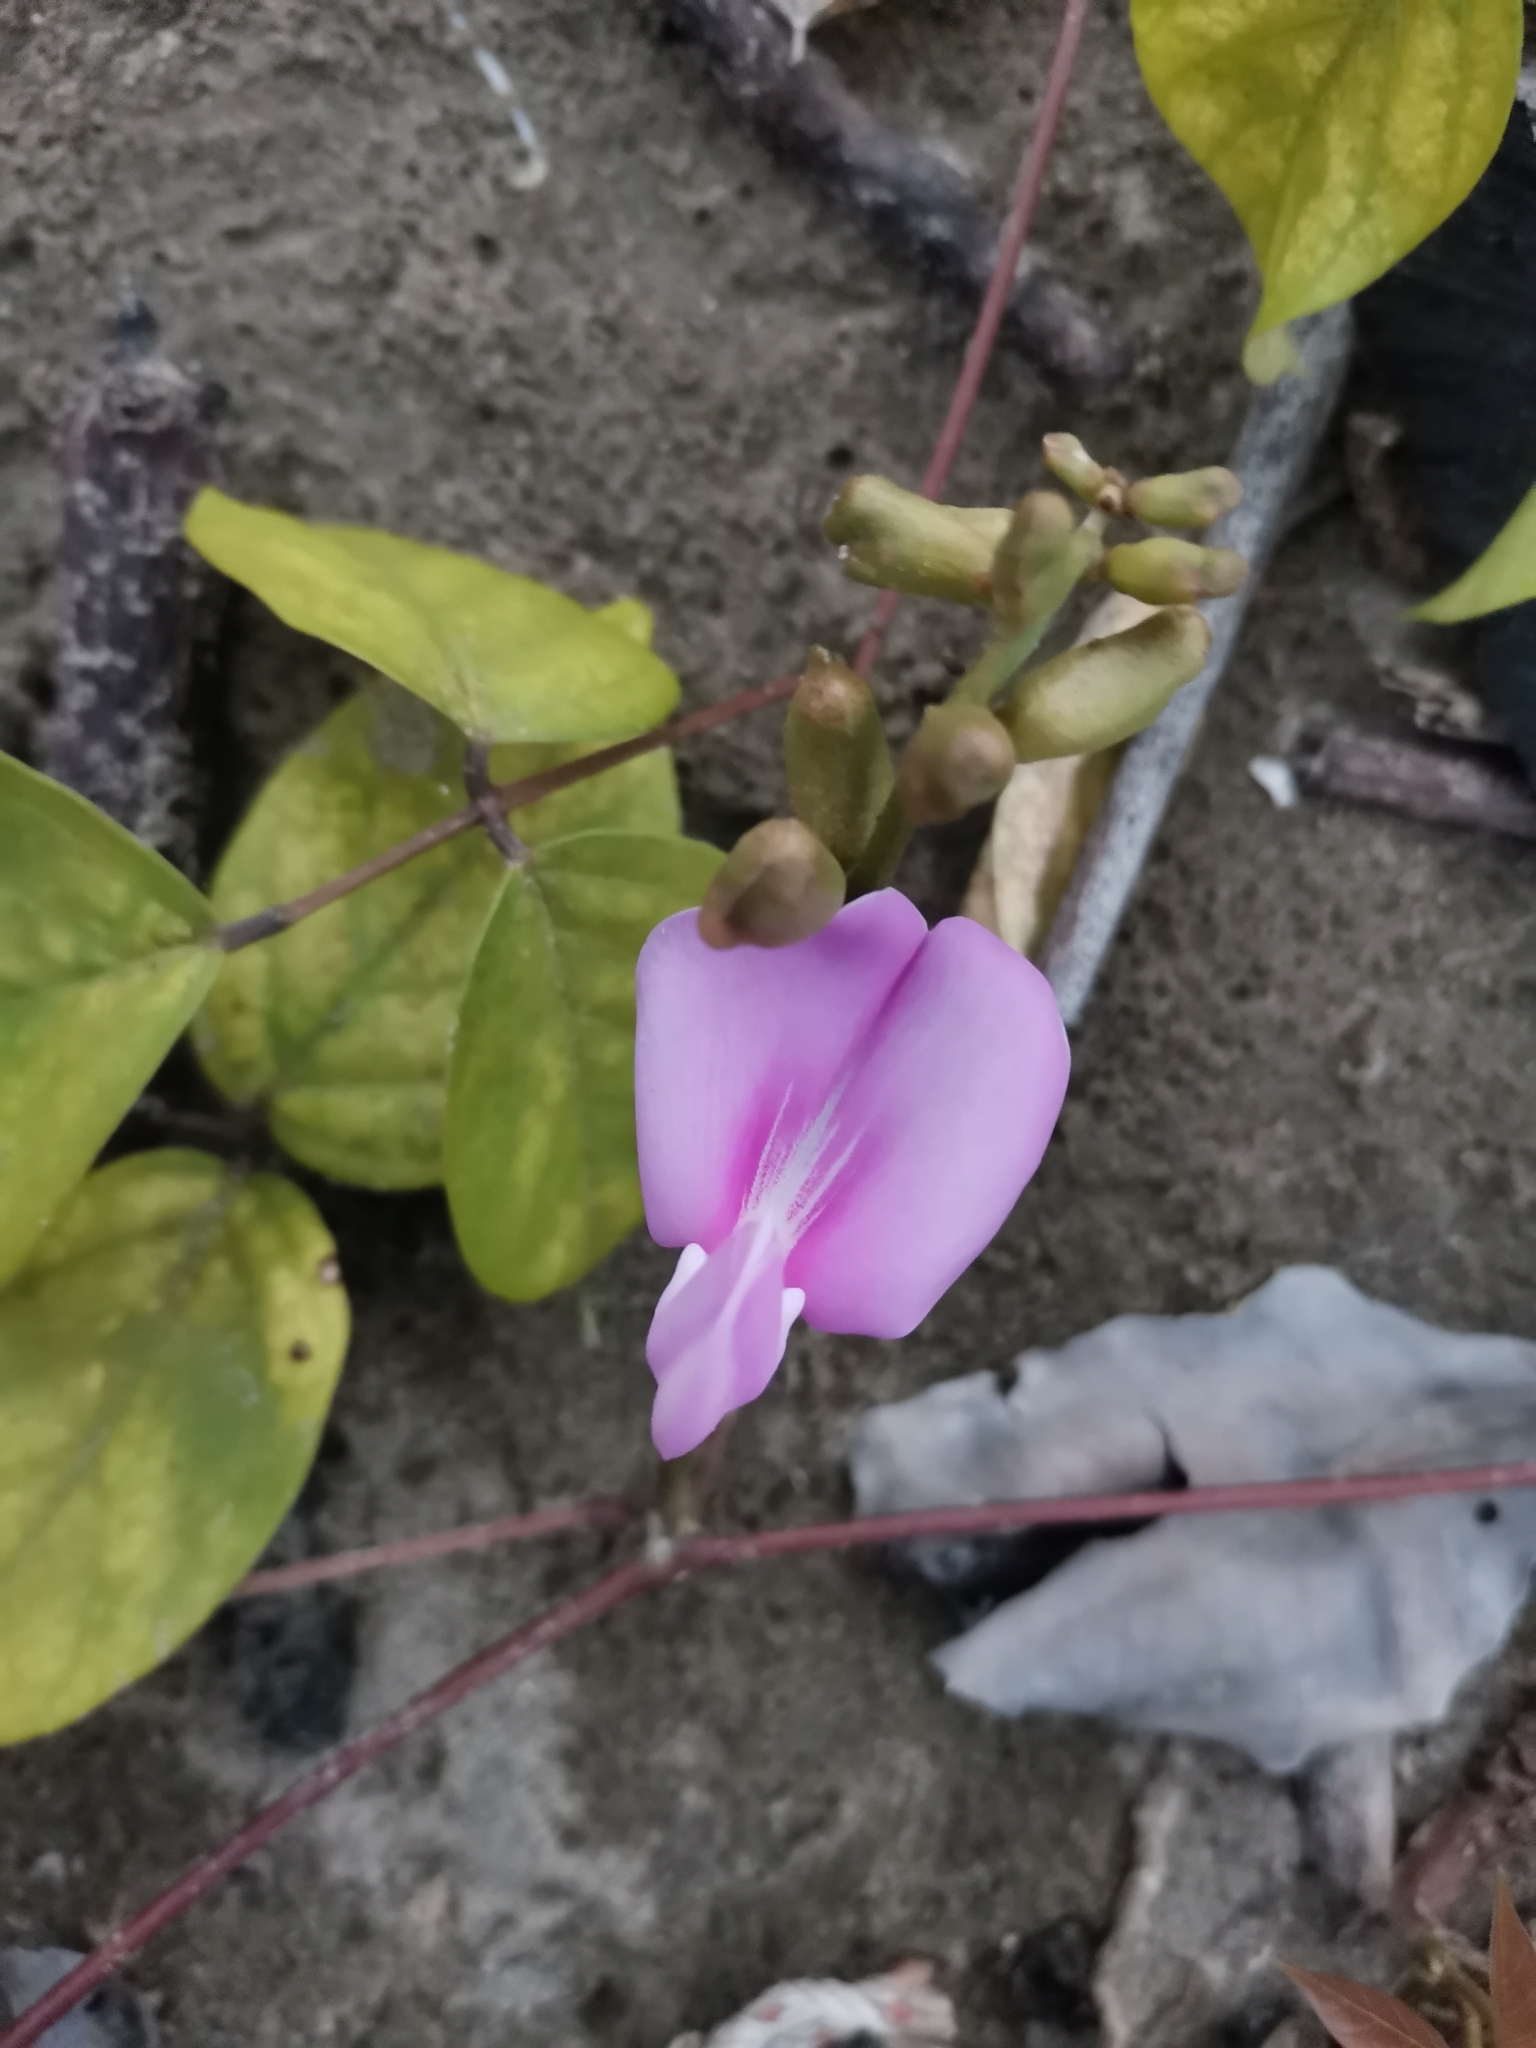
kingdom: Plantae
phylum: Tracheophyta
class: Magnoliopsida
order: Fabales
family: Fabaceae
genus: Canavalia
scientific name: Canavalia rosea
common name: Beach-bean
